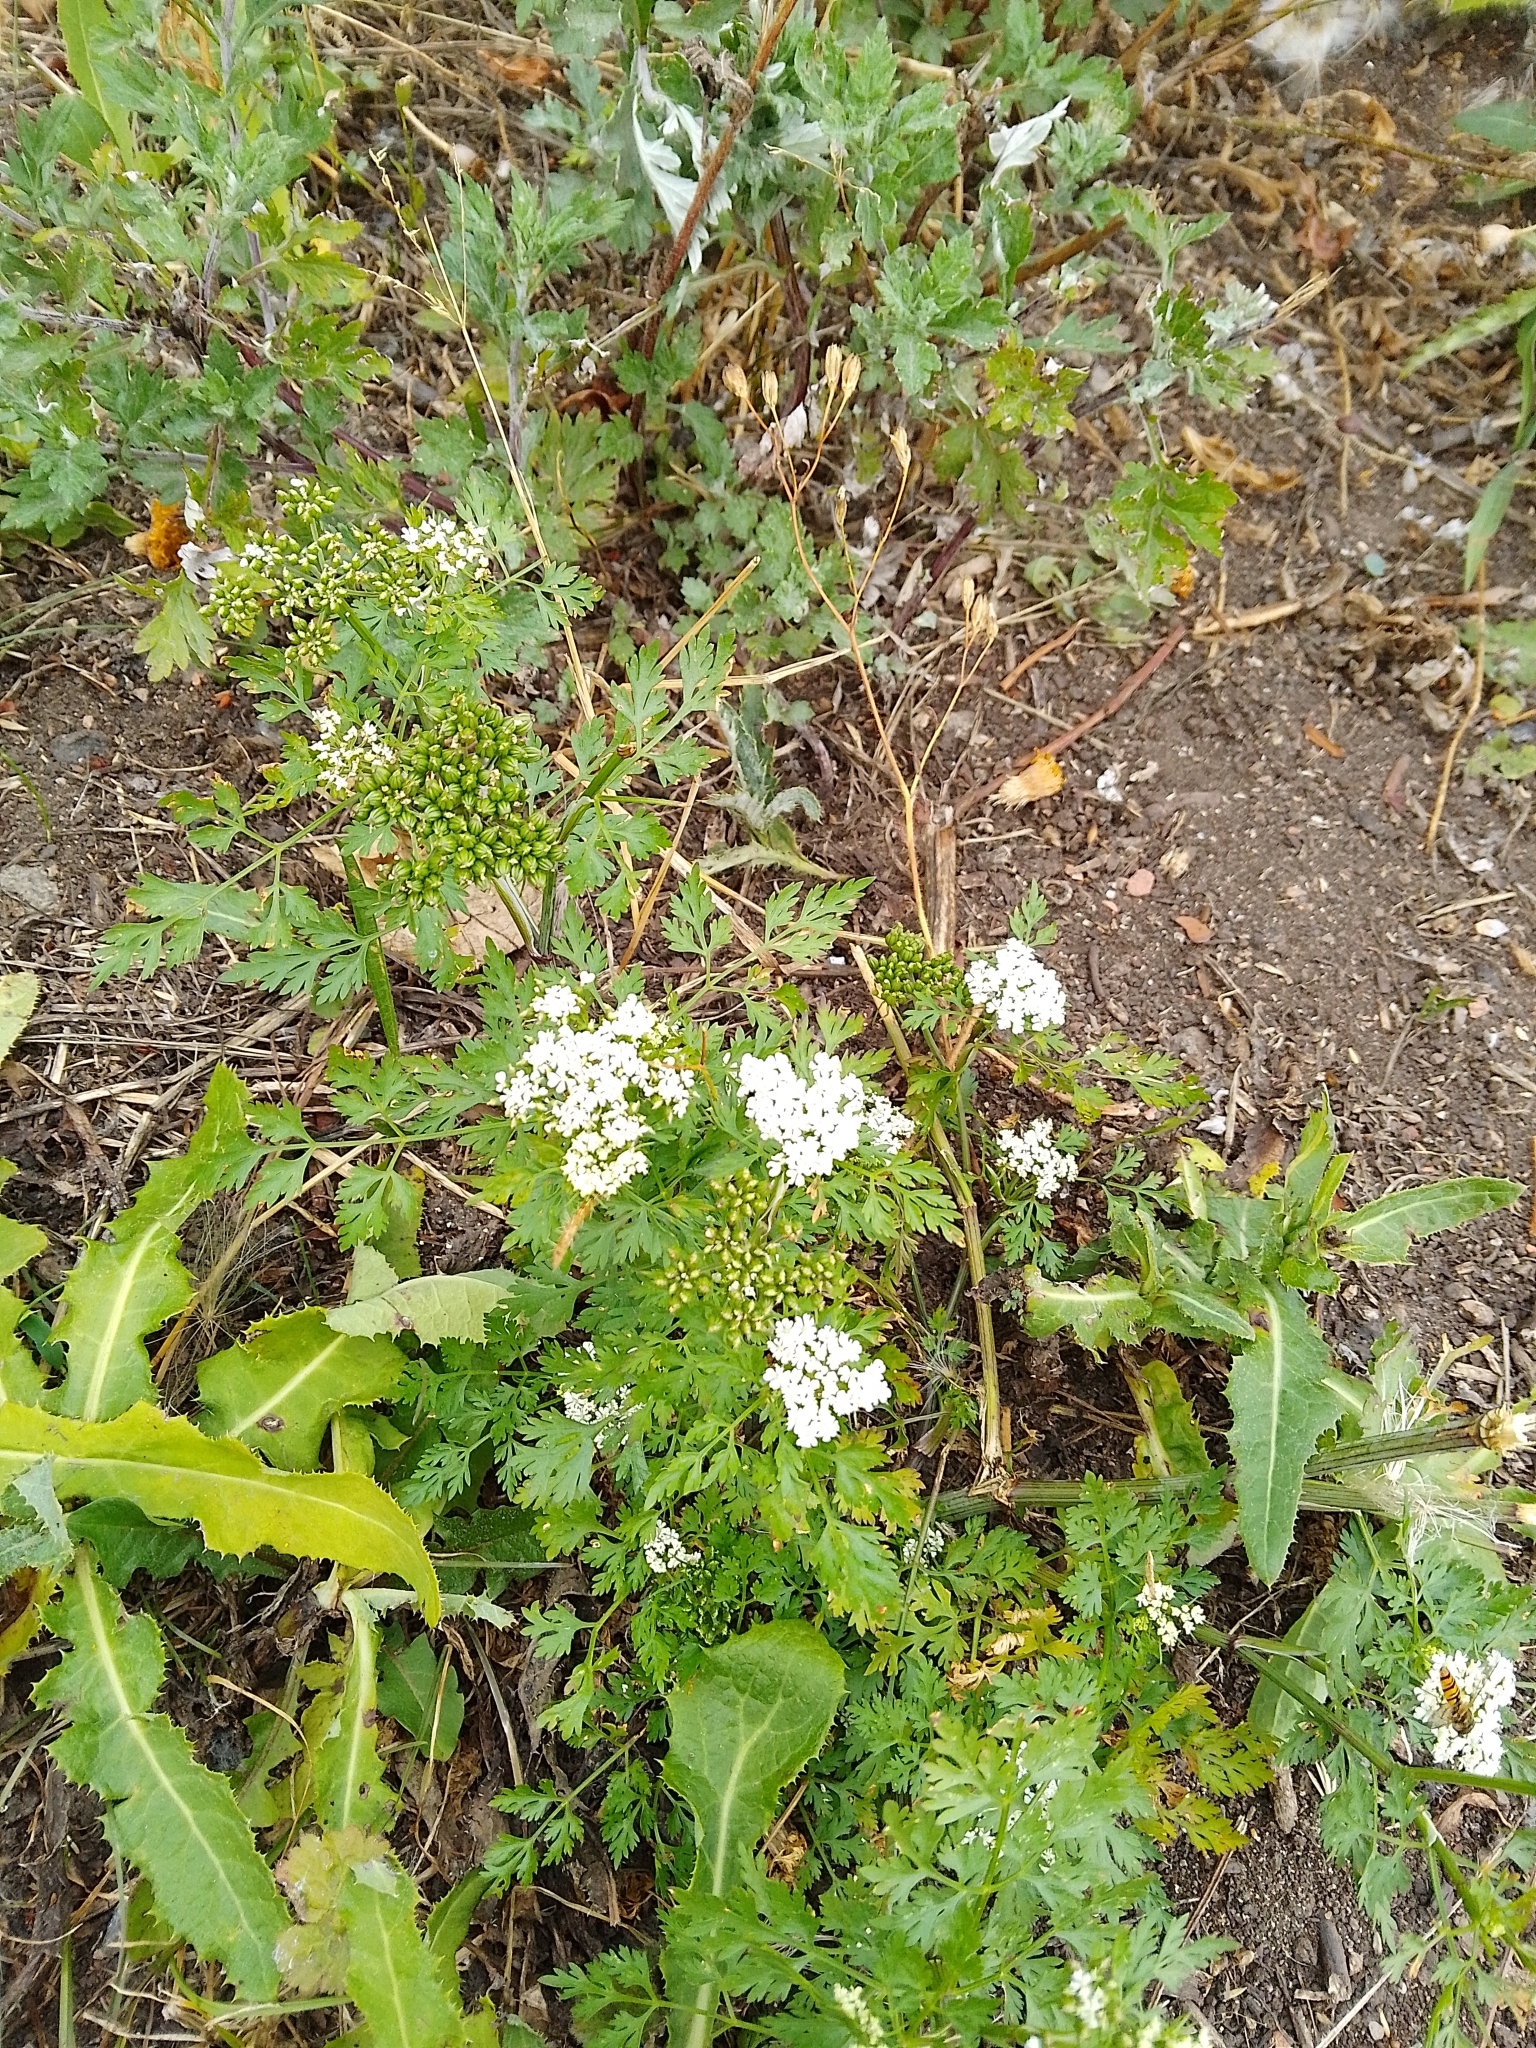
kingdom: Plantae
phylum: Tracheophyta
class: Magnoliopsida
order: Apiales
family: Apiaceae
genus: Aethusa
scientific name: Aethusa cynapium
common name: Fool's parsley
